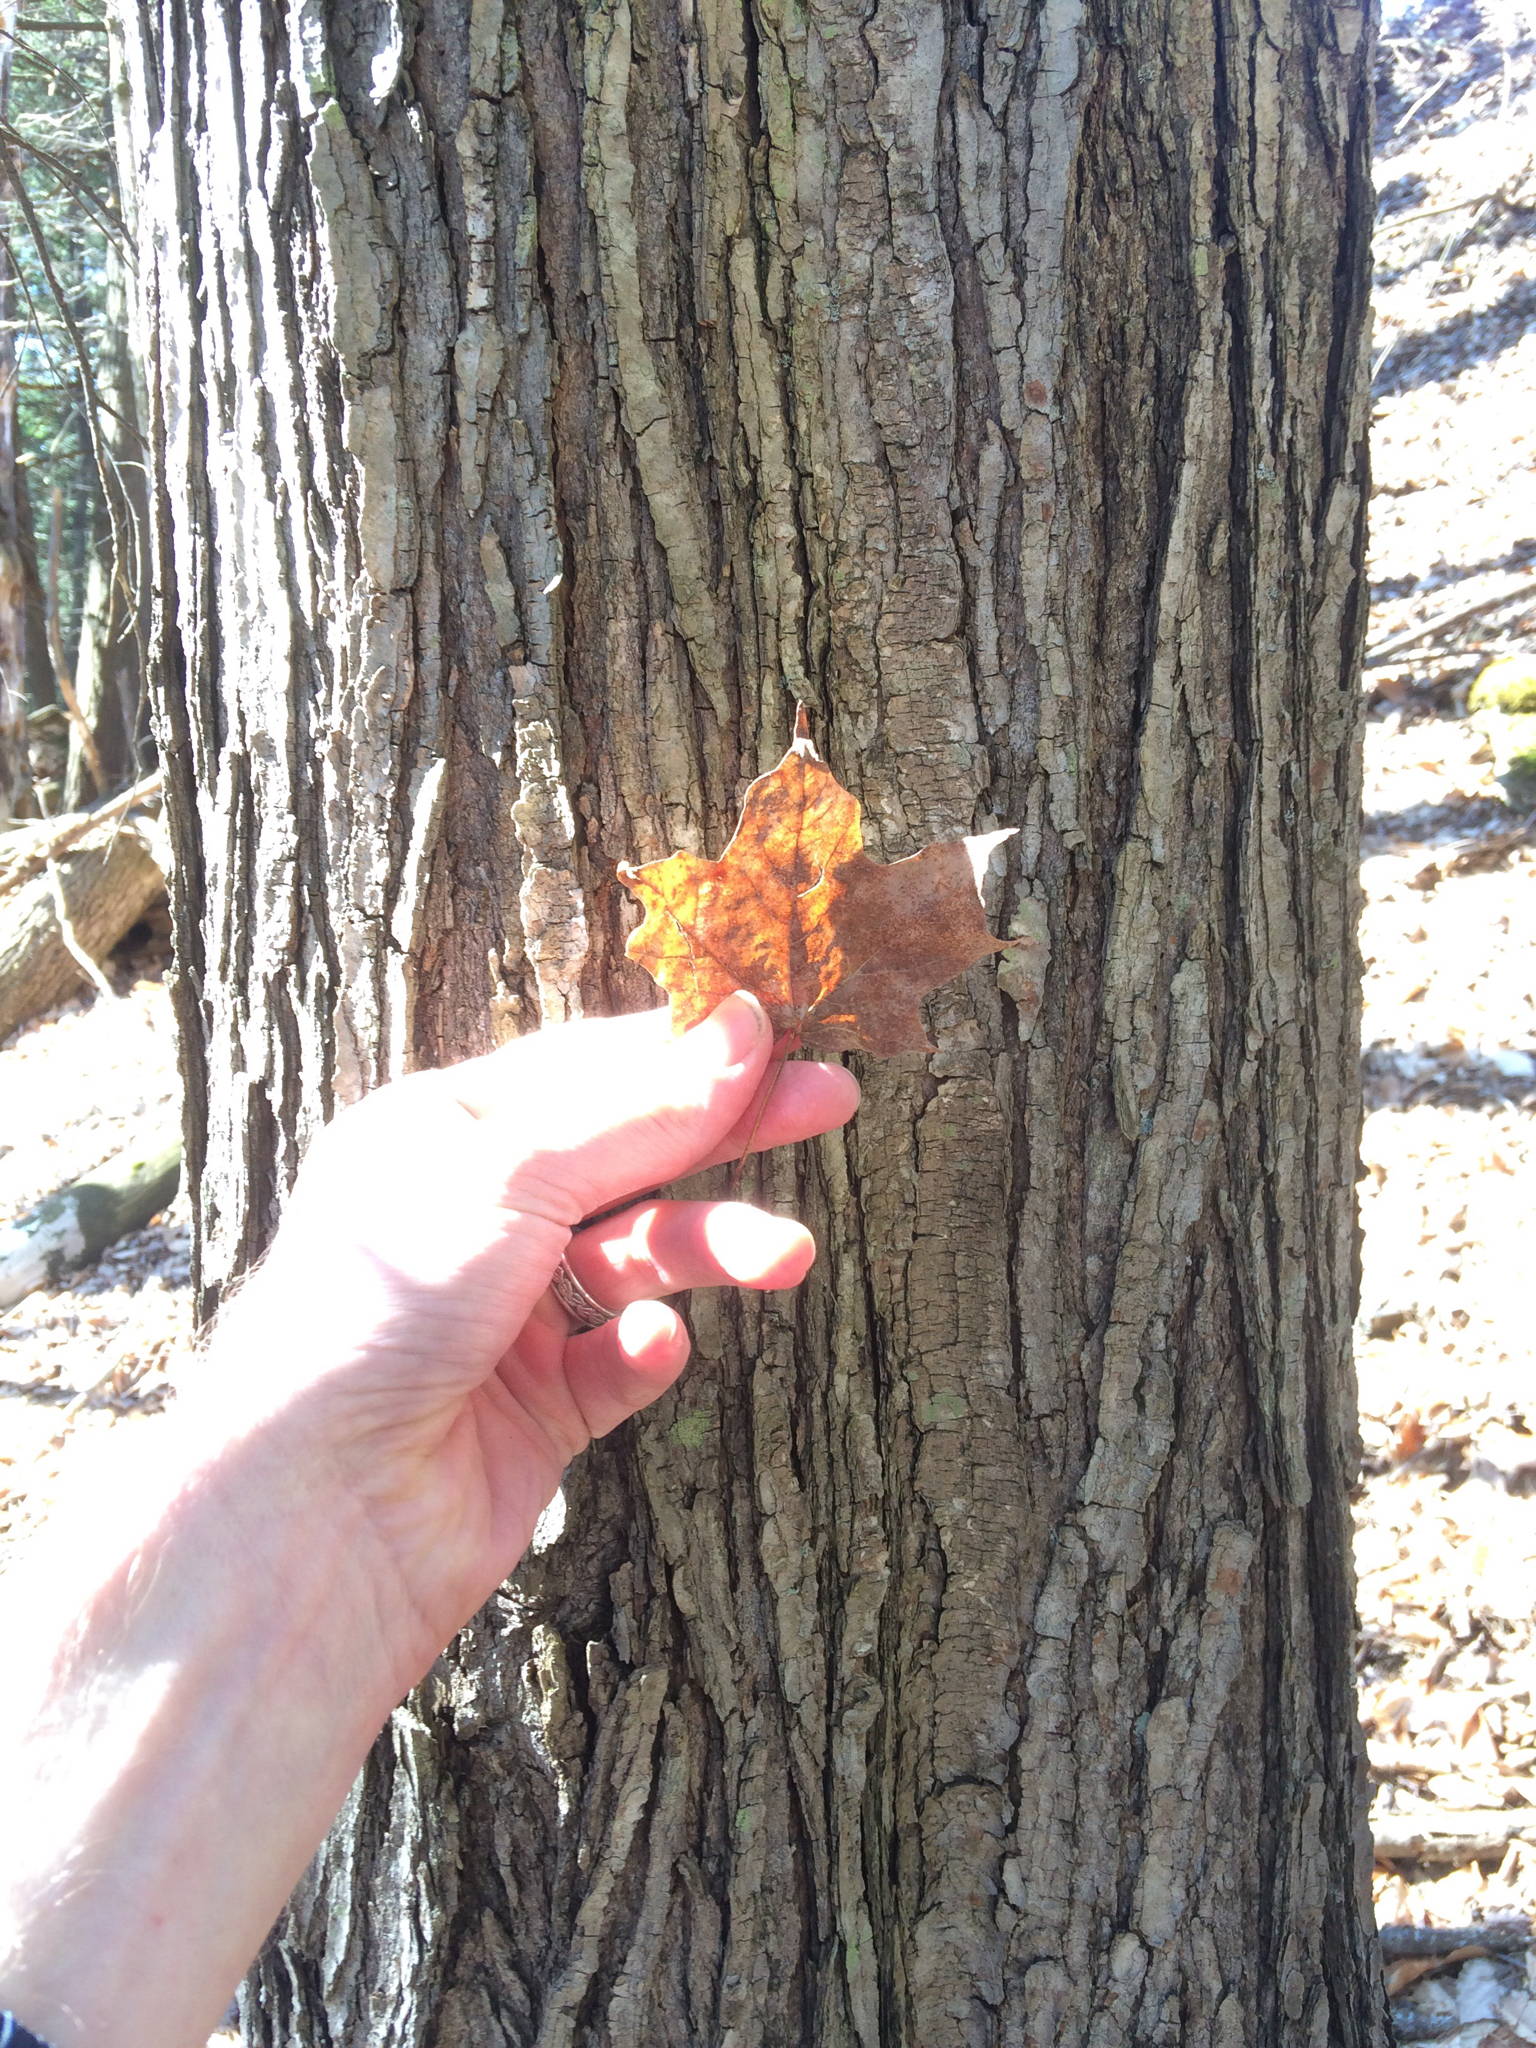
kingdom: Plantae
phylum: Tracheophyta
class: Magnoliopsida
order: Sapindales
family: Sapindaceae
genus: Acer
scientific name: Acer saccharum
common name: Sugar maple
